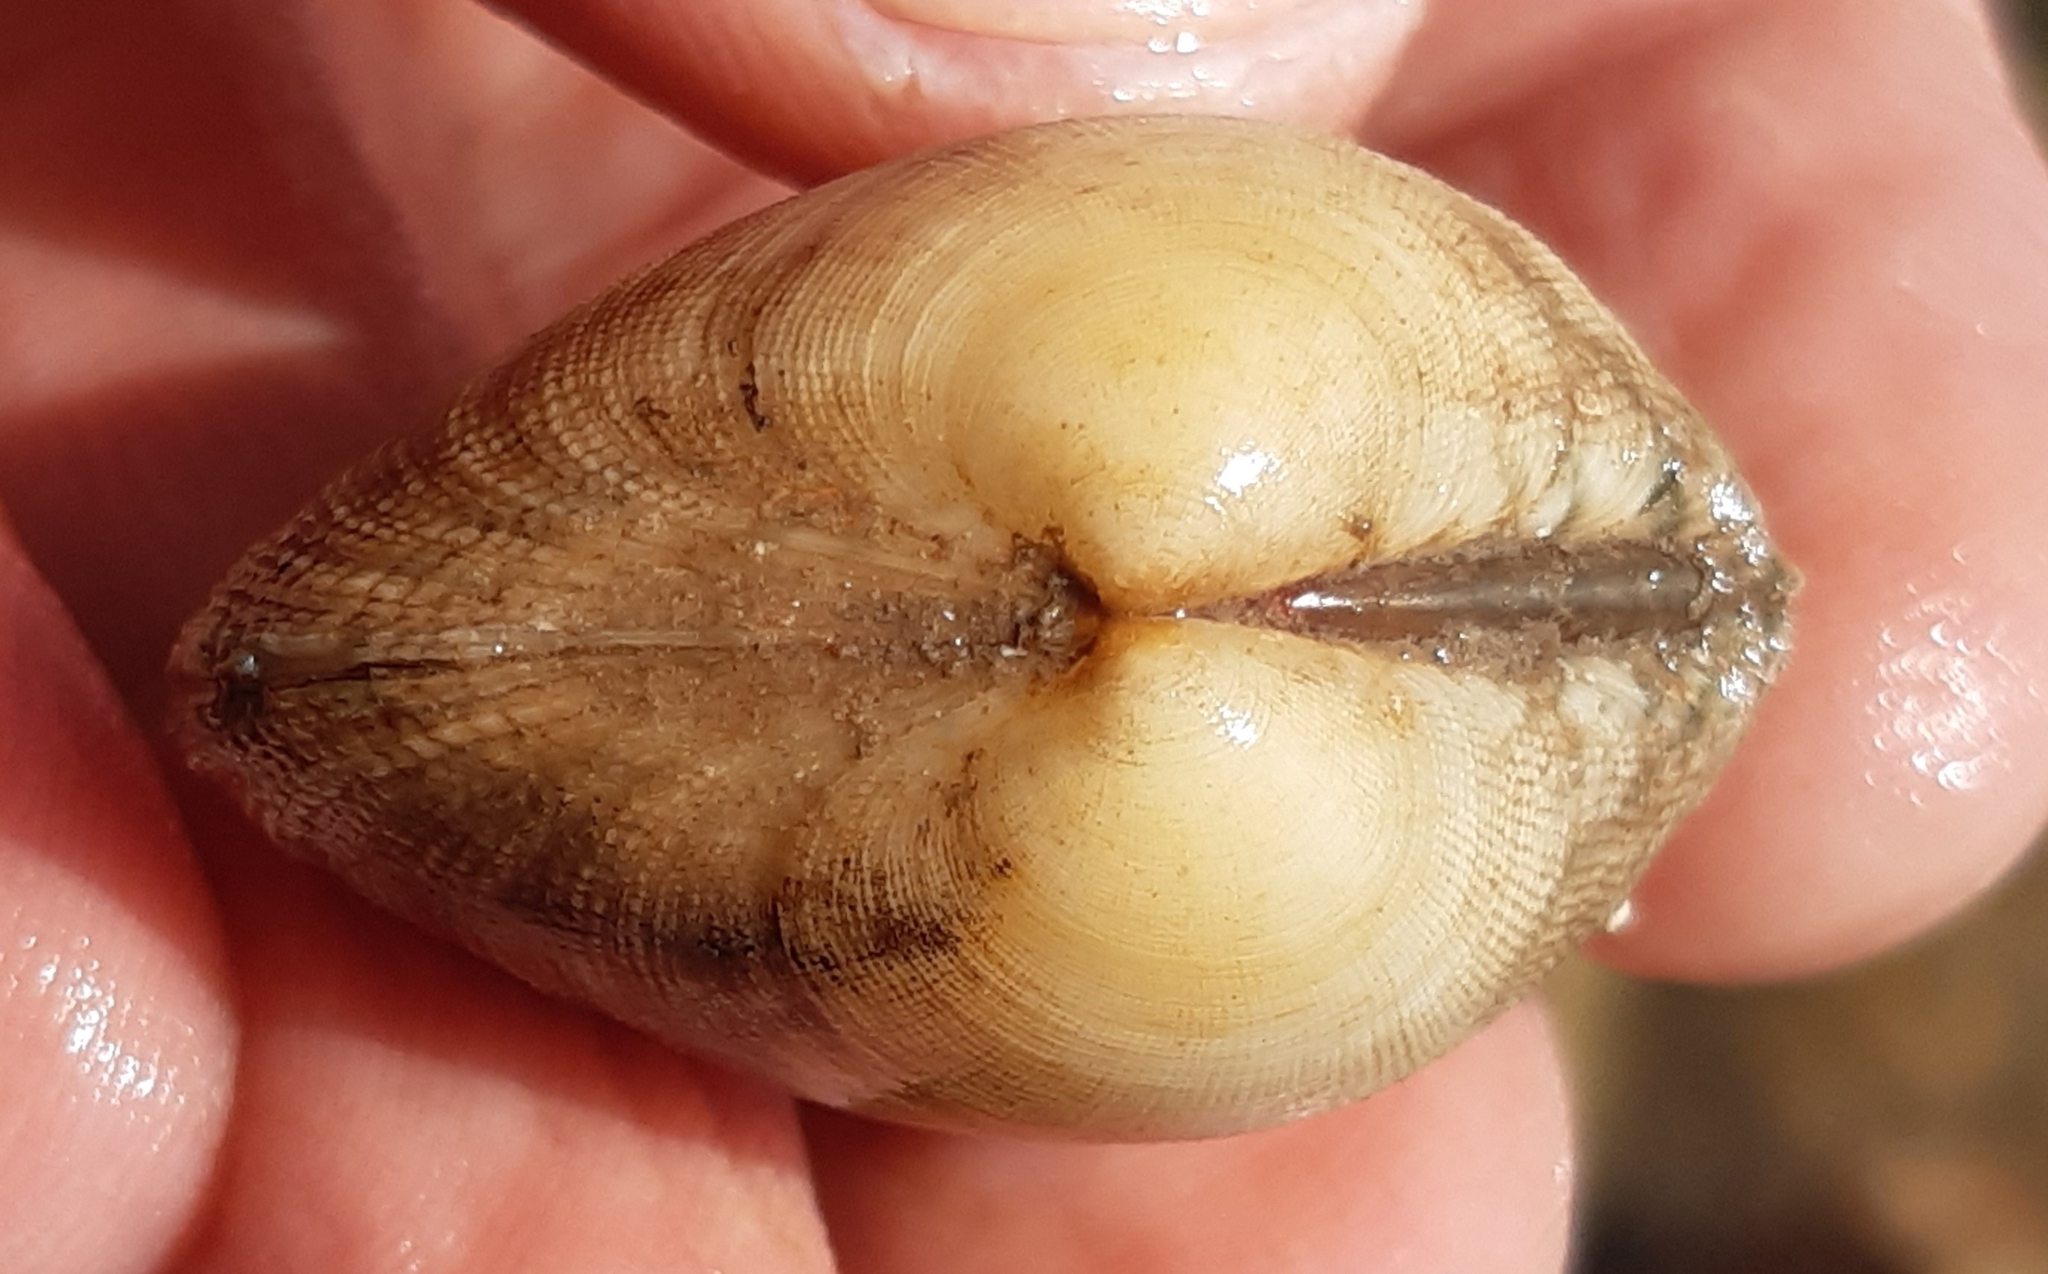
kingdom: Animalia
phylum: Mollusca
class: Bivalvia
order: Venerida
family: Veneridae
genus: Ruditapes
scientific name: Ruditapes decussatus
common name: Chequered carpet shell
